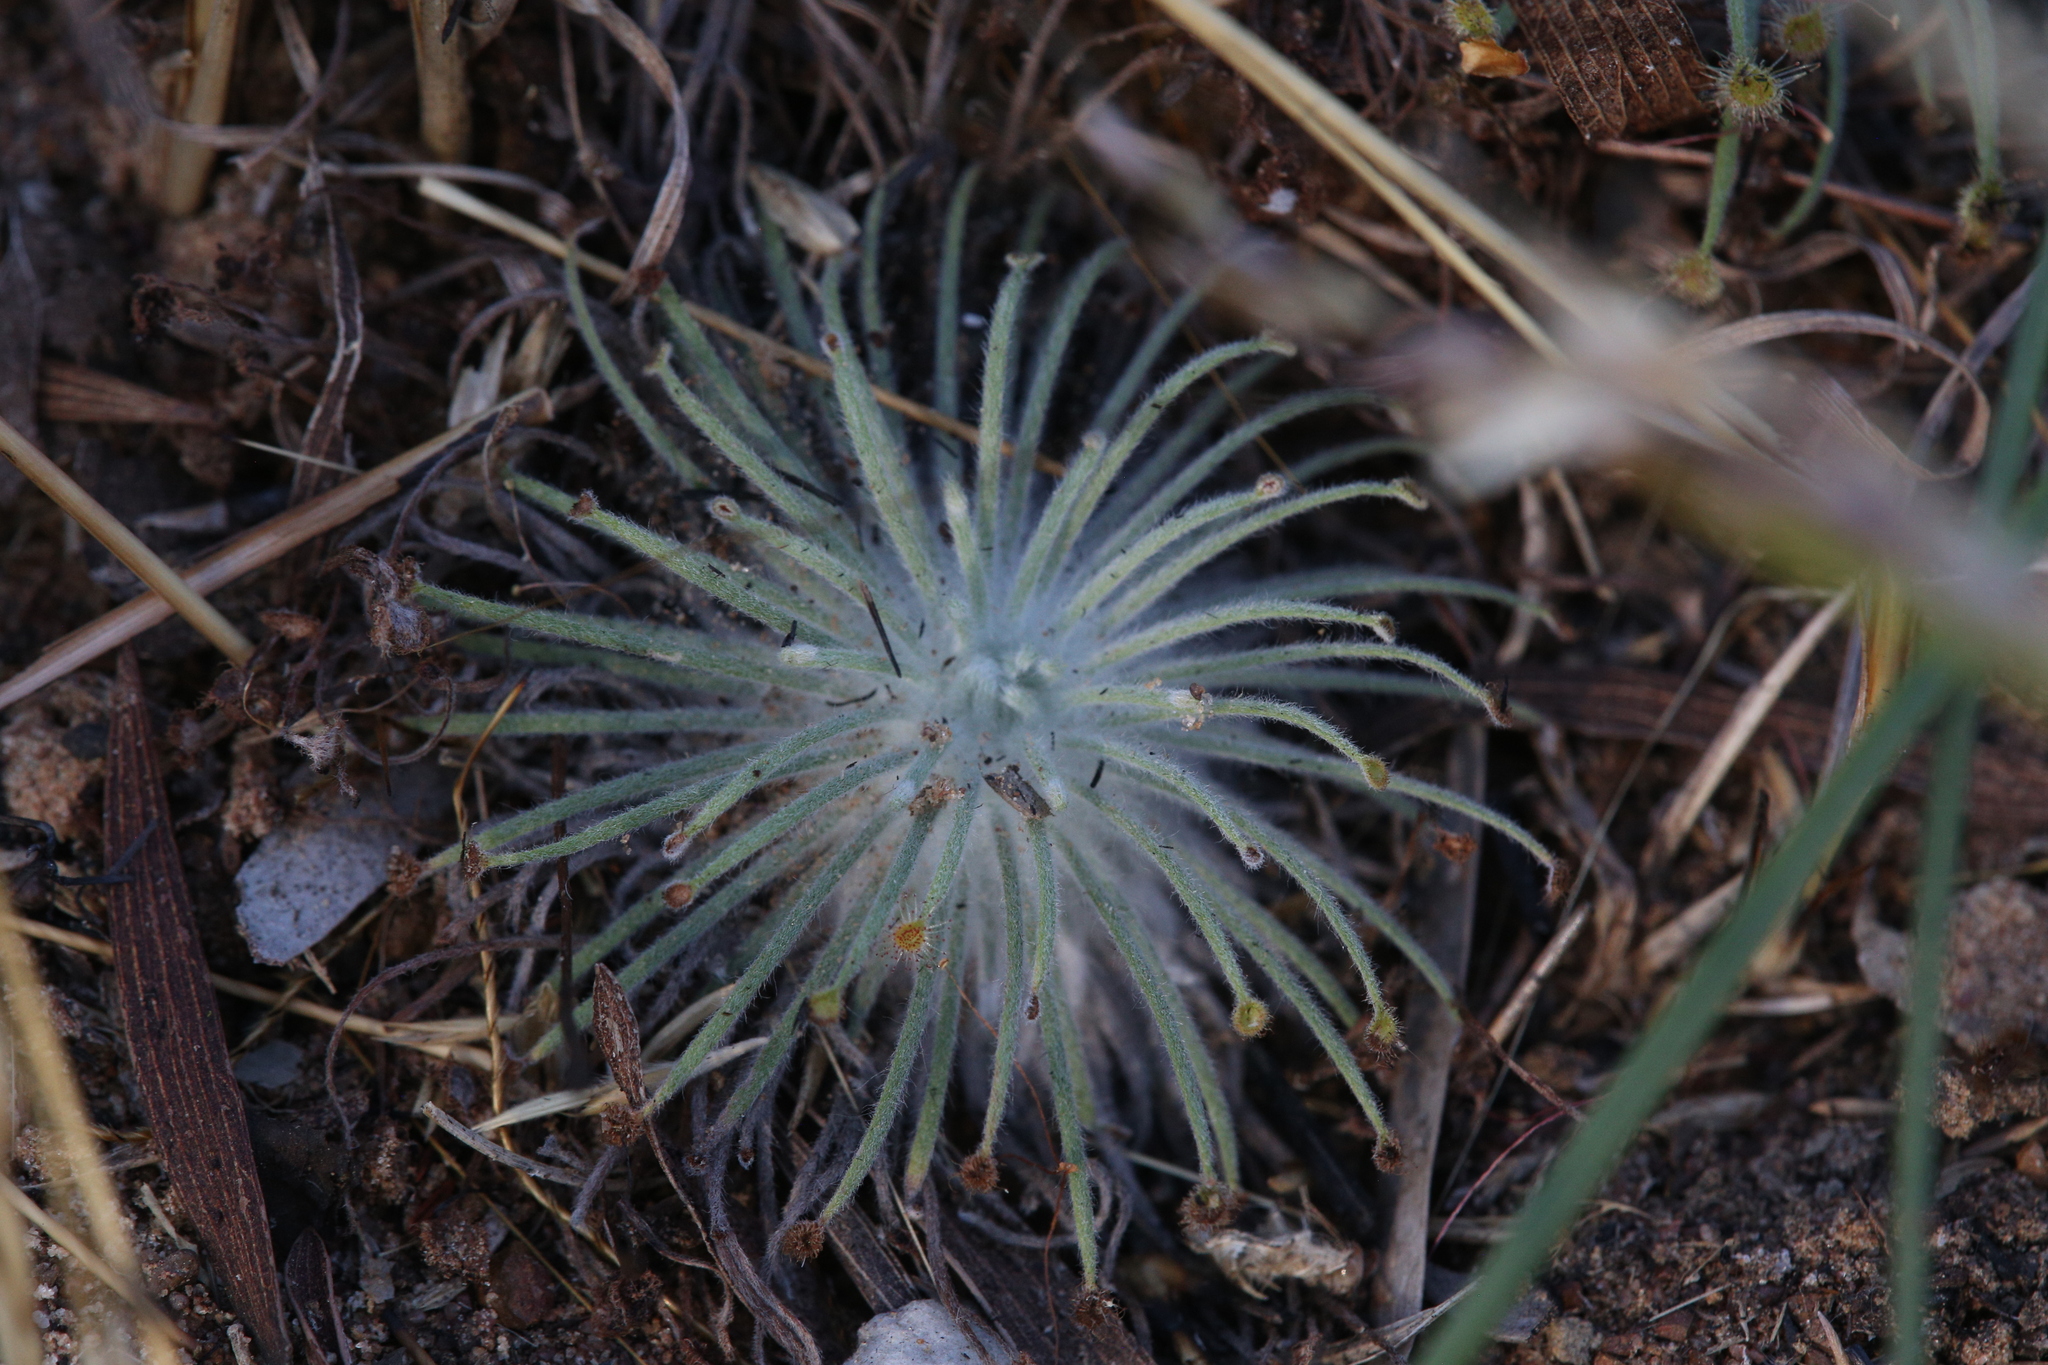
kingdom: Plantae
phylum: Tracheophyta
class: Magnoliopsida
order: Caryophyllales
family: Droseraceae
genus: Drosera
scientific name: Drosera broomensis
